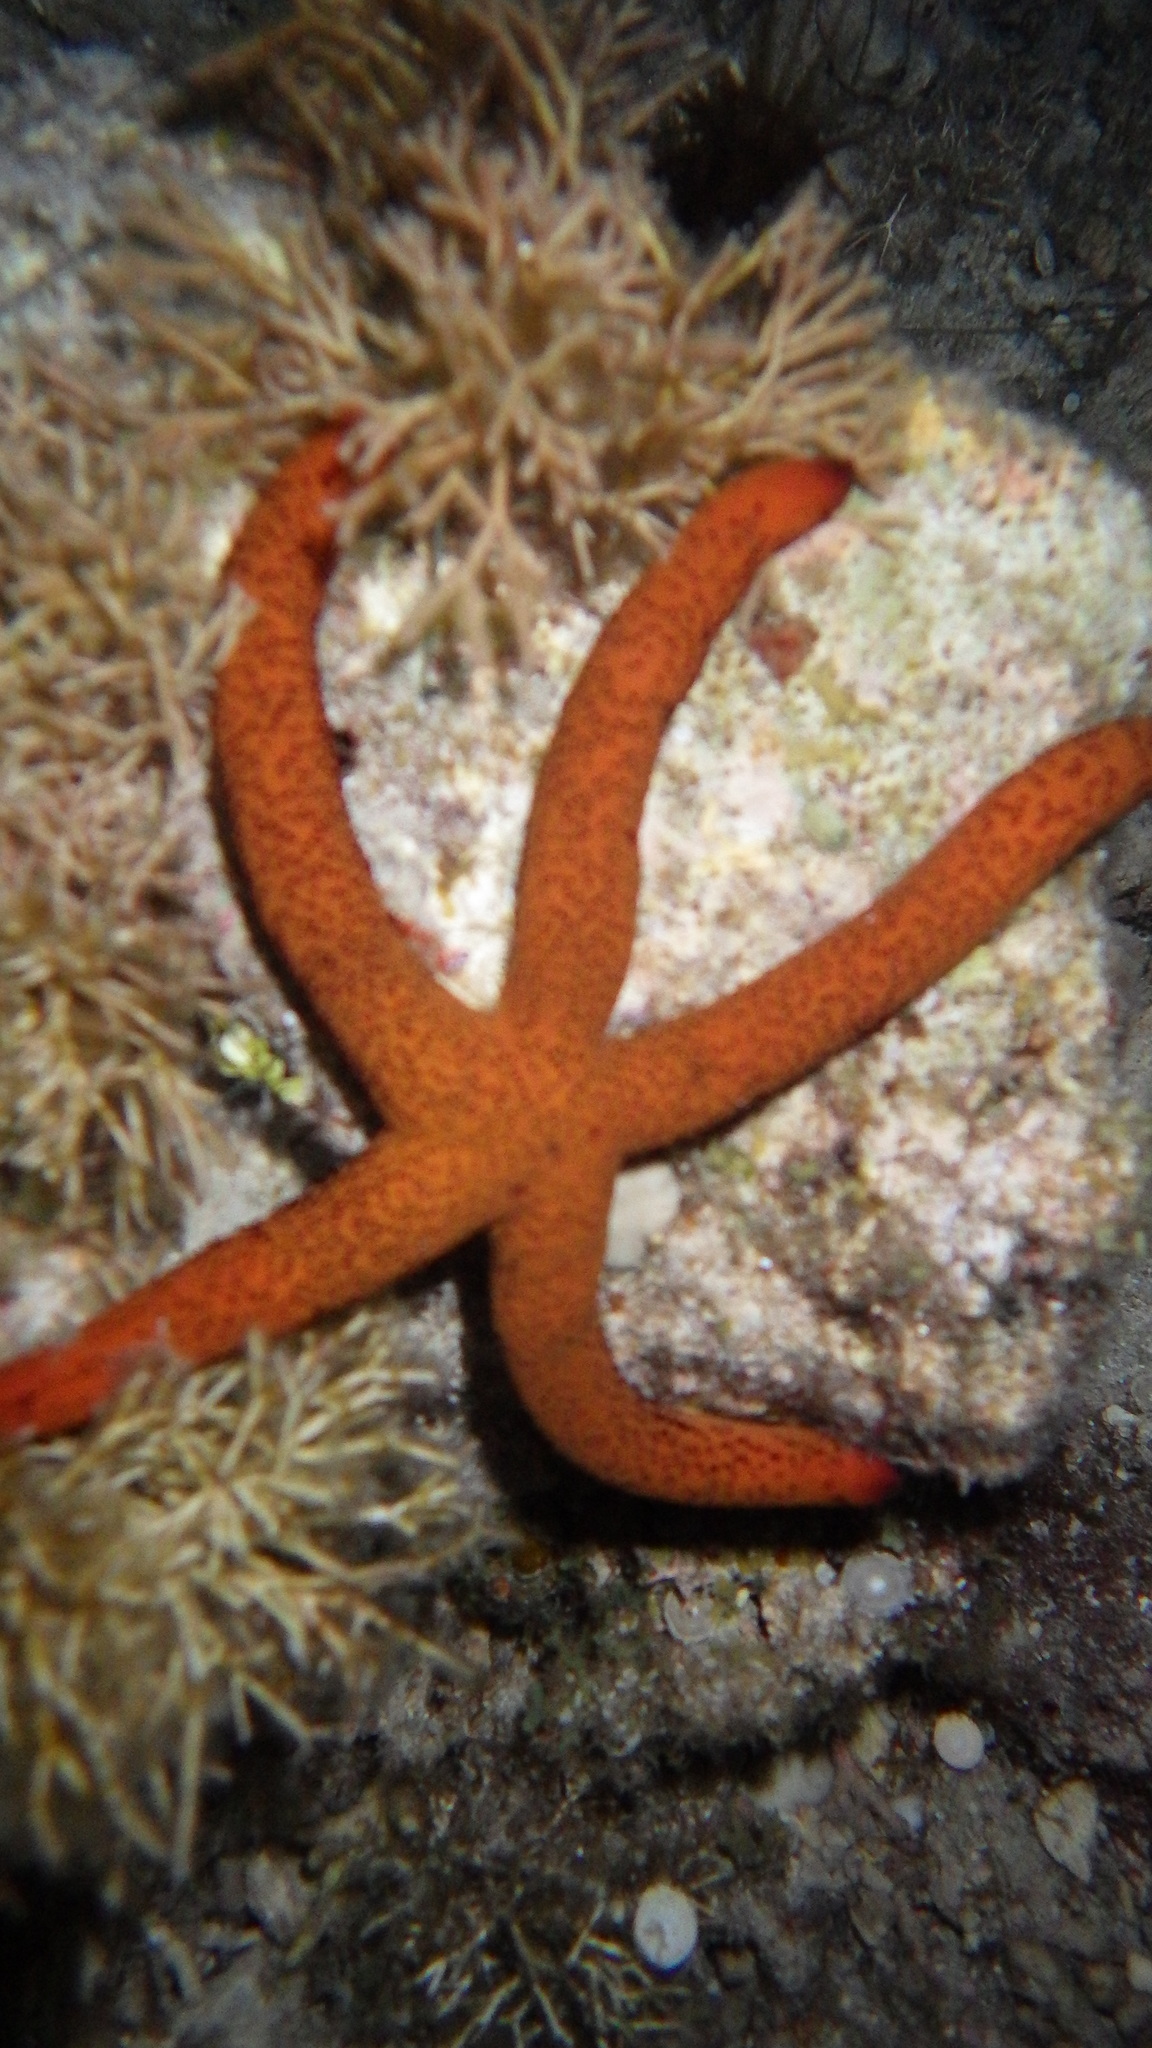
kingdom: Animalia
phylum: Echinodermata
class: Asteroidea
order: Spinulosida
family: Echinasteridae
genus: Echinaster
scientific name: Echinaster luzonicus
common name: Luzon seastar
